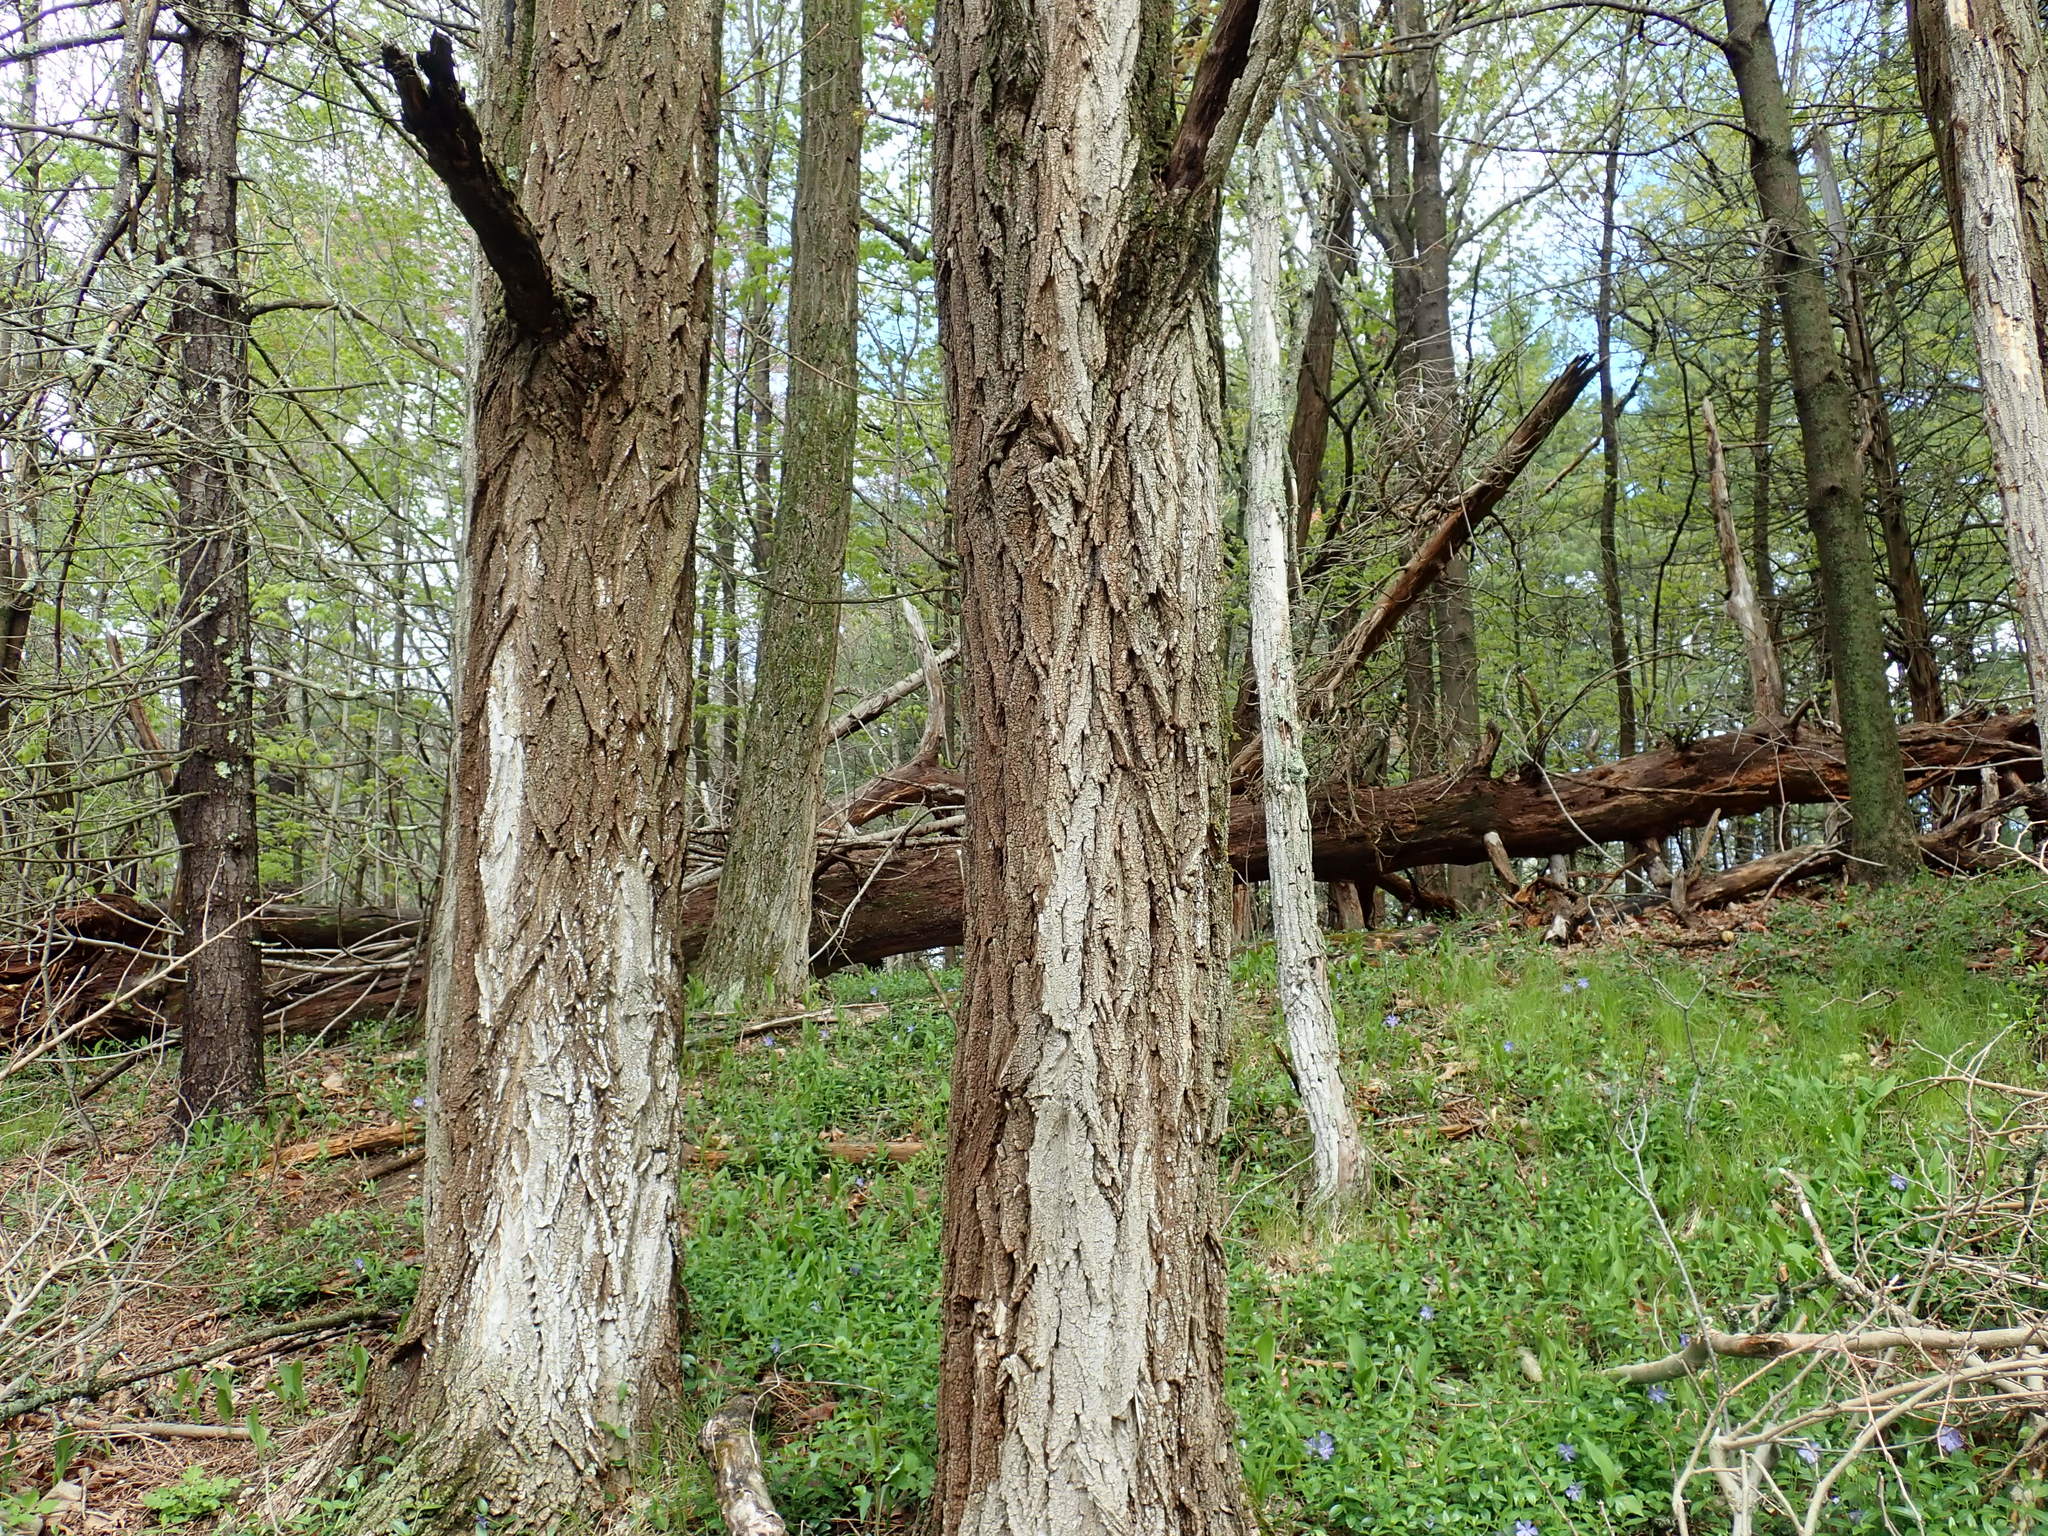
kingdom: Plantae
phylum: Tracheophyta
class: Magnoliopsida
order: Fabales
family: Fabaceae
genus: Robinia
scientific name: Robinia pseudoacacia
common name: Black locust
